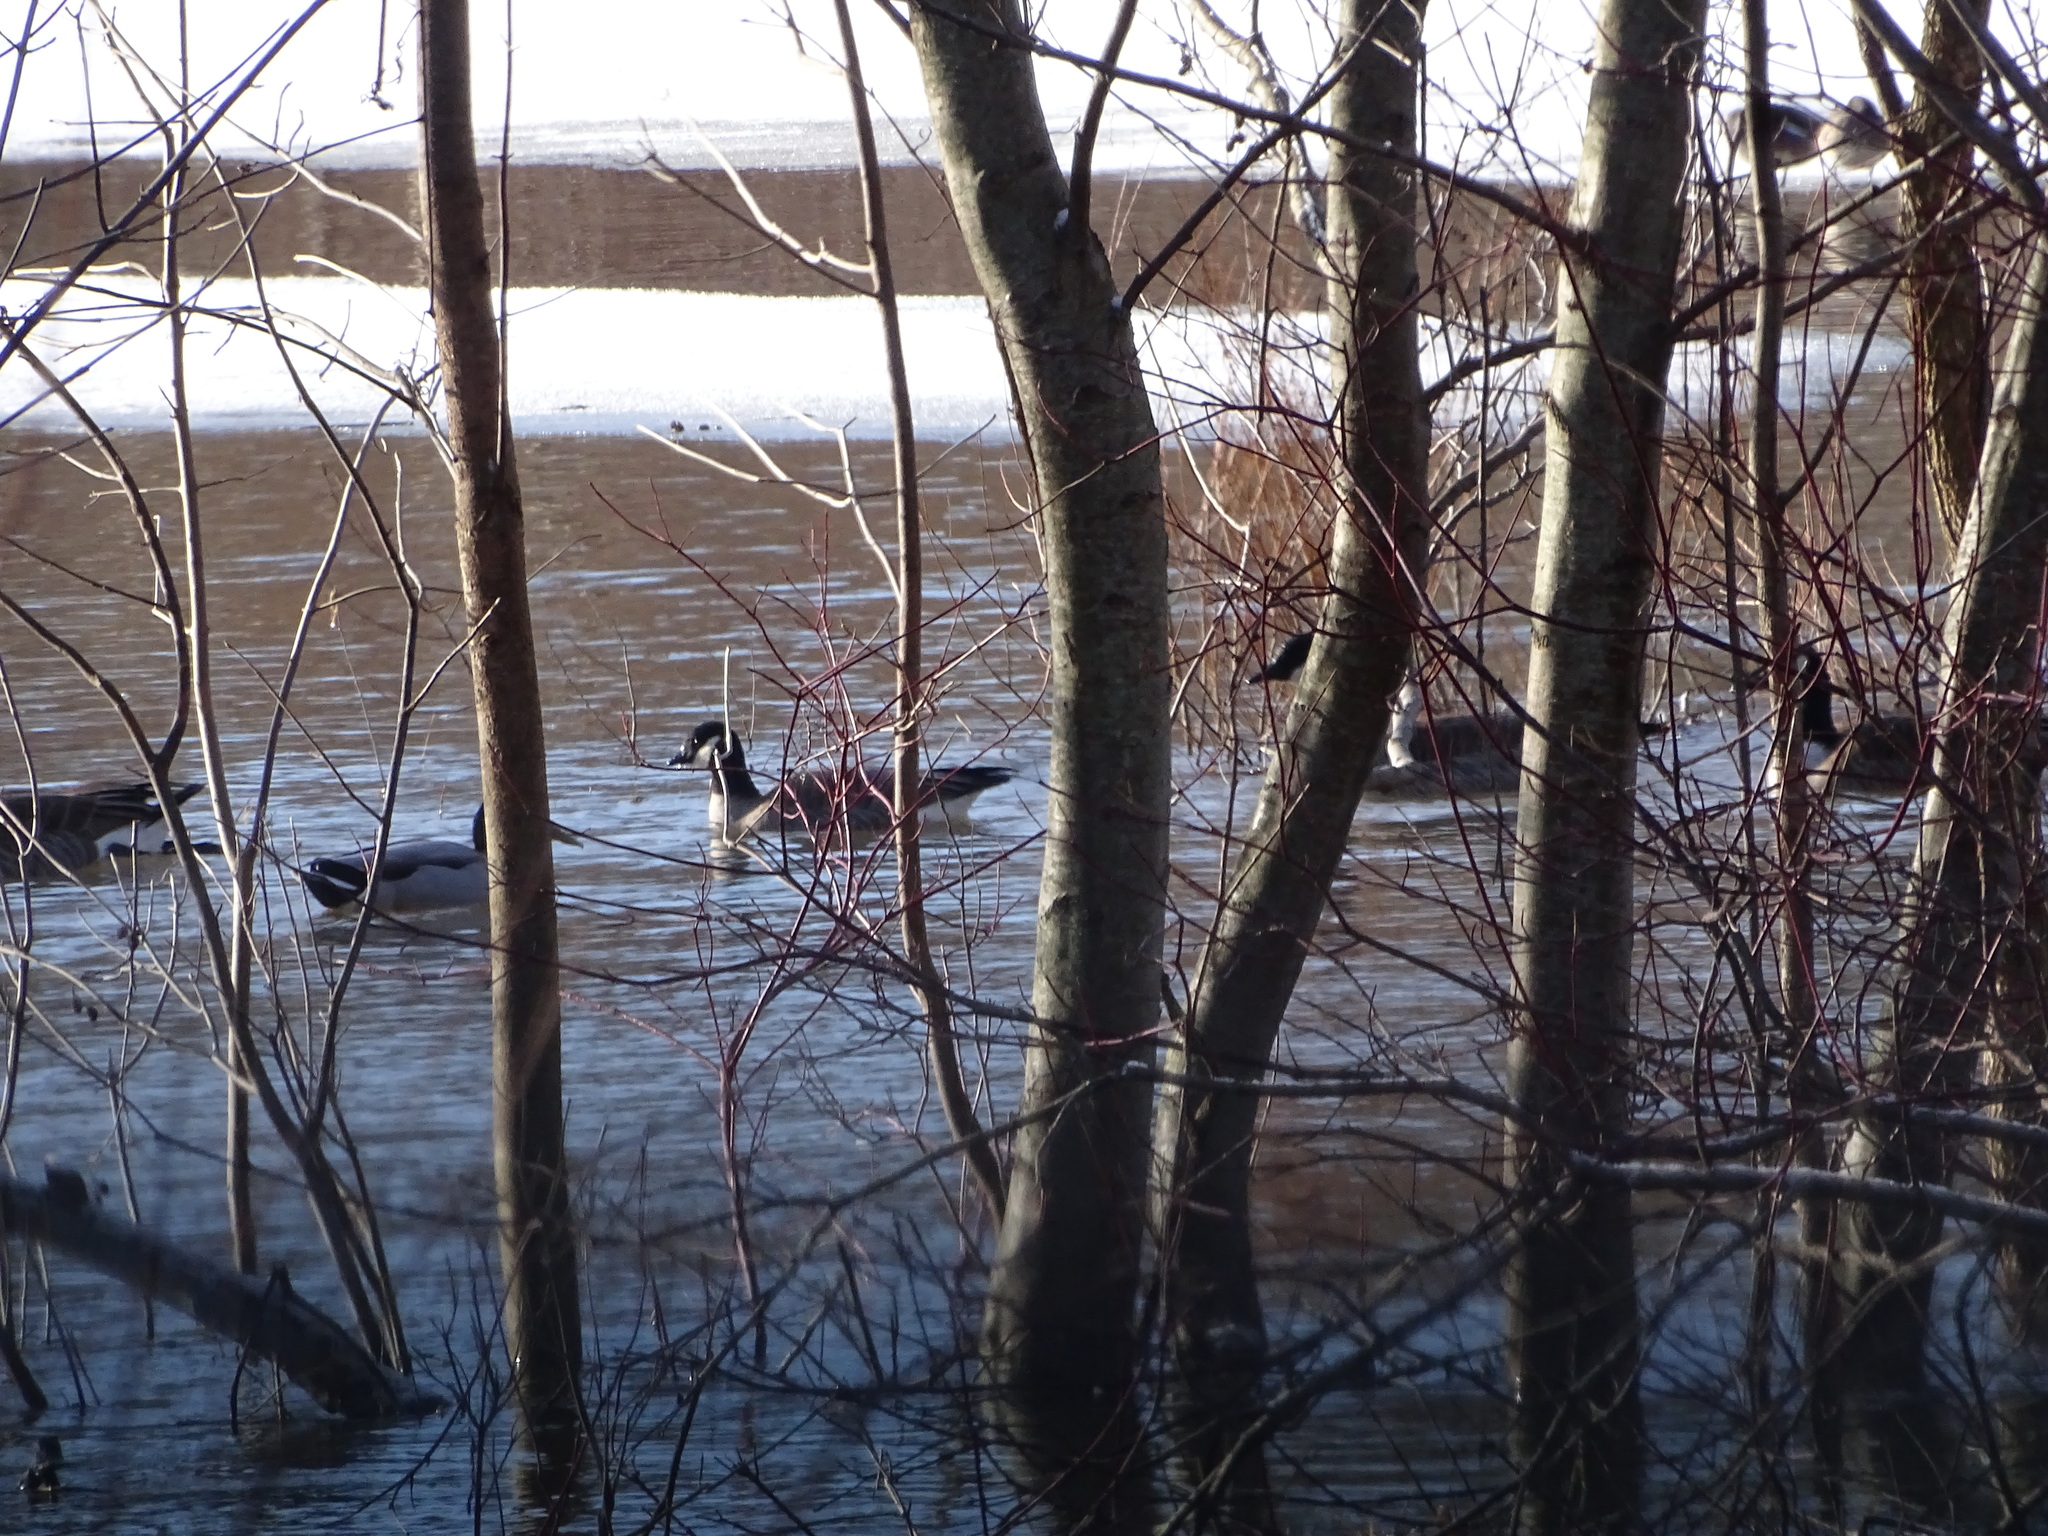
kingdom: Animalia
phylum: Chordata
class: Aves
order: Anseriformes
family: Anatidae
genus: Branta
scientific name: Branta hutchinsii
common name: Cackling goose
